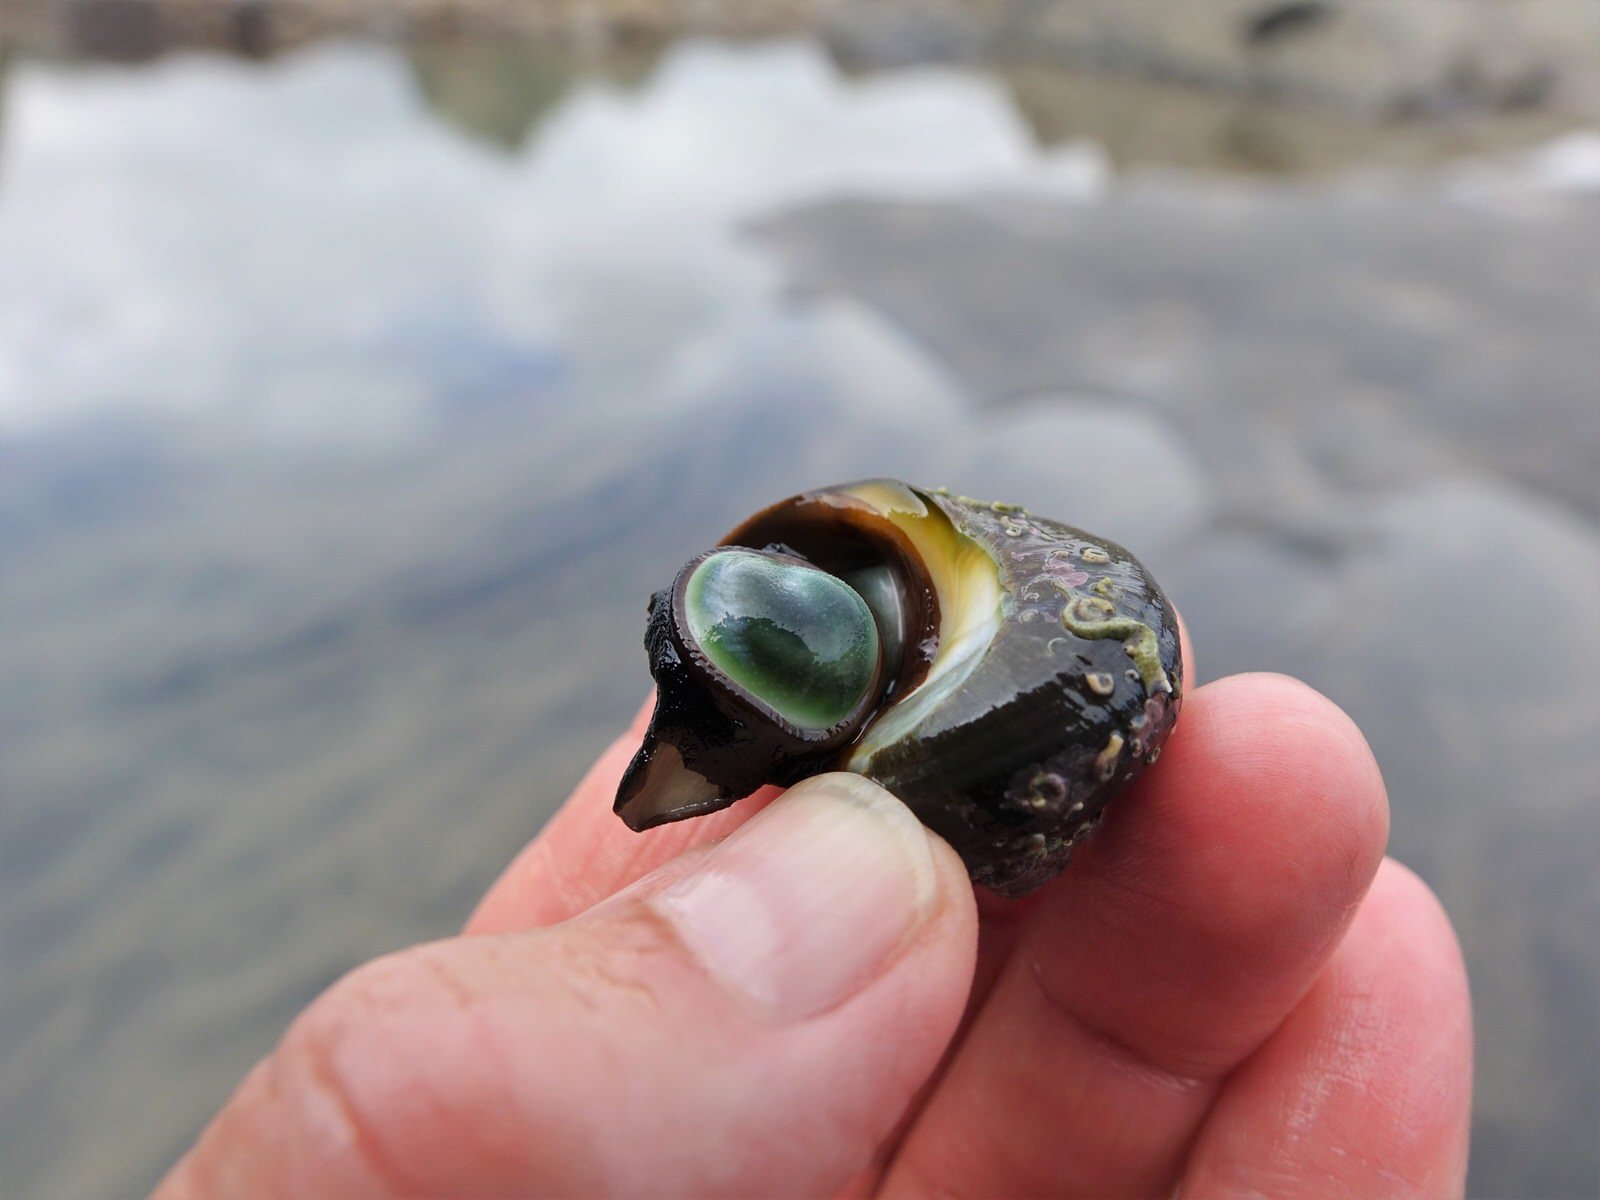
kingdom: Animalia
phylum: Mollusca
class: Gastropoda
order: Trochida
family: Turbinidae
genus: Lunella
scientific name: Lunella smaragda
